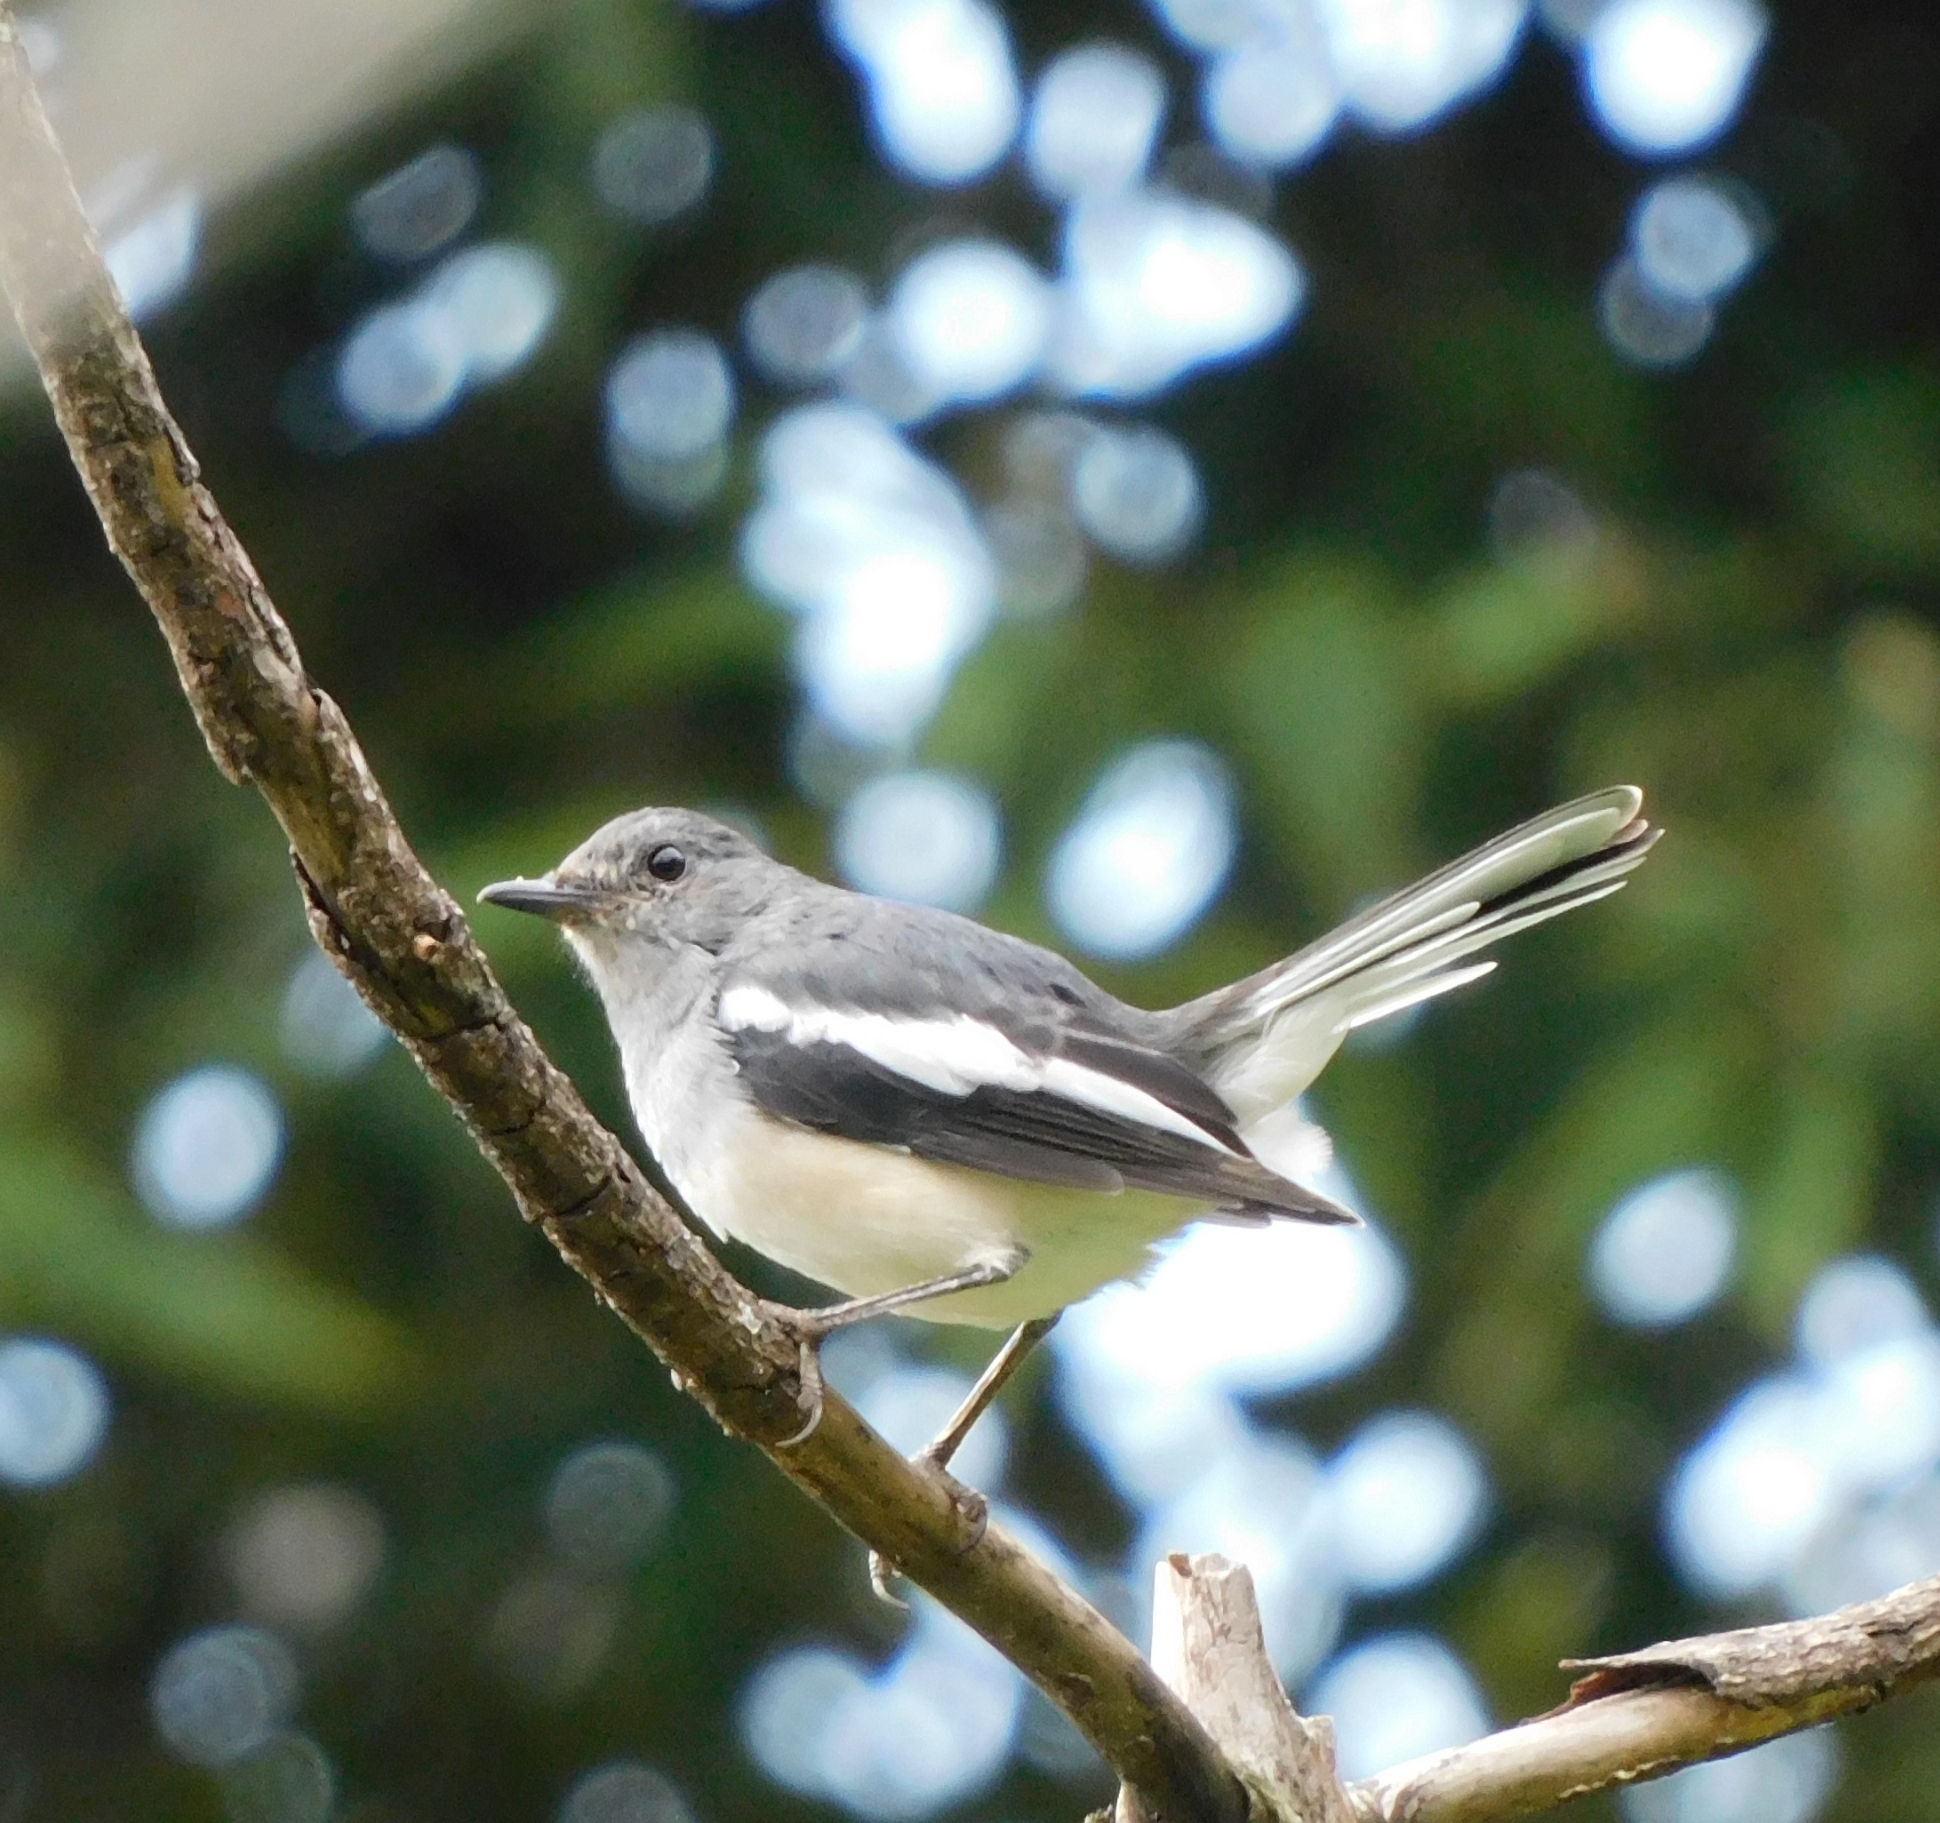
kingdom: Animalia
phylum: Chordata
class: Aves
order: Passeriformes
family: Muscicapidae
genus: Copsychus
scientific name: Copsychus saularis
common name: Oriental magpie-robin
